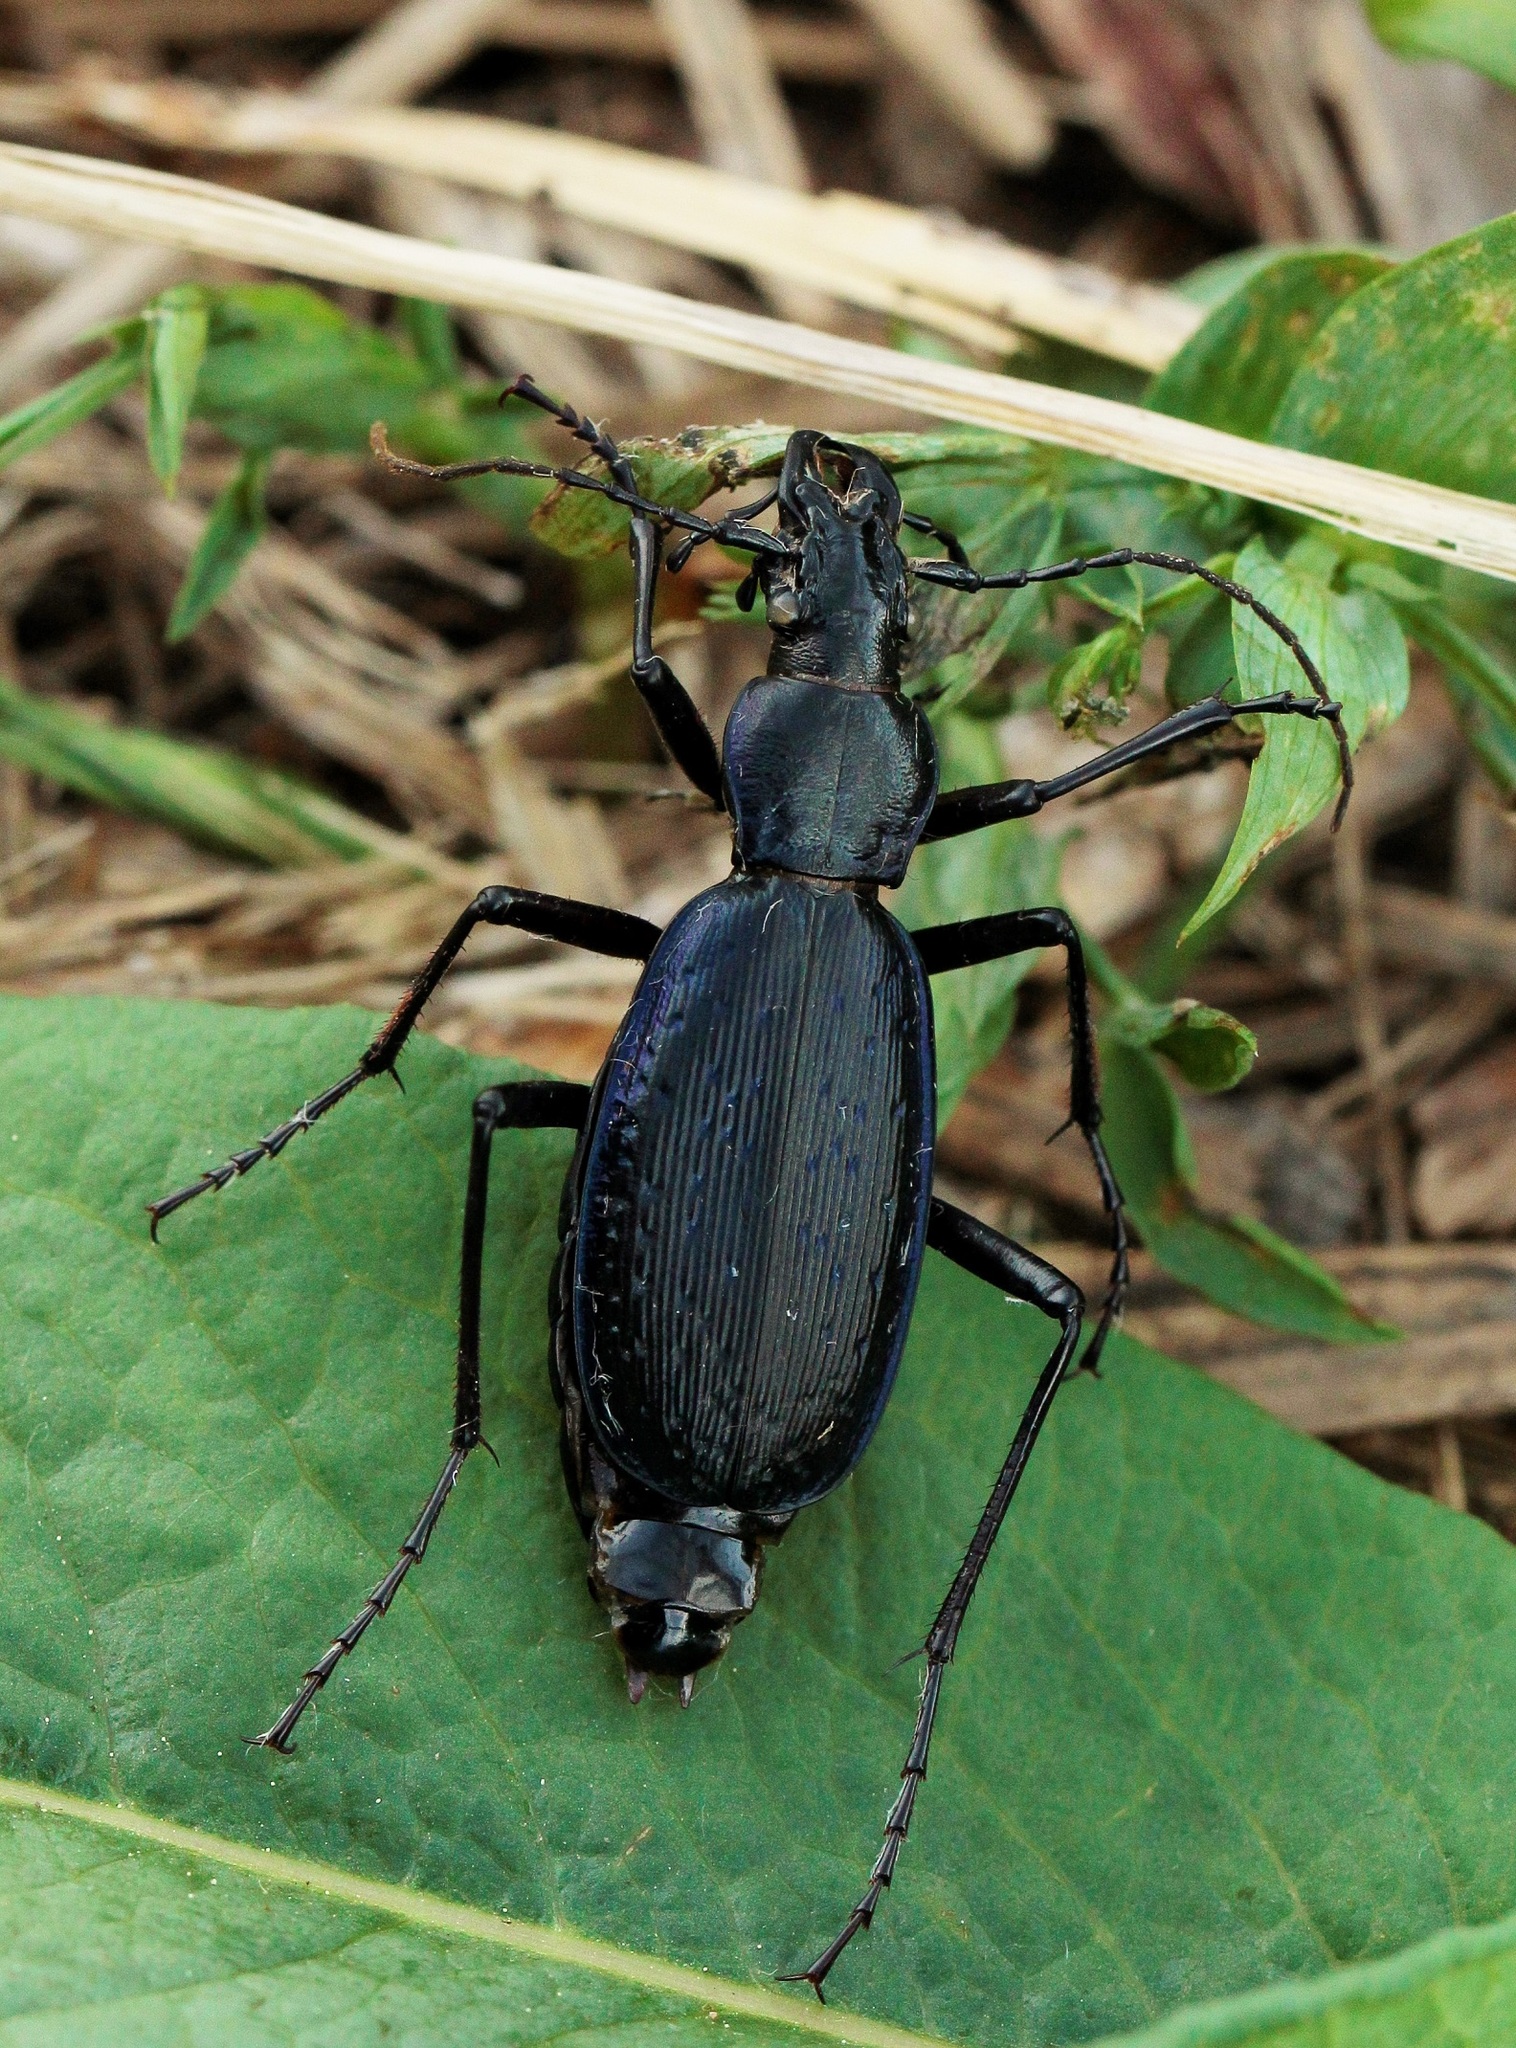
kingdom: Animalia
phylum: Arthropoda
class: Insecta
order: Coleoptera
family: Carabidae
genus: Carabus
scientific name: Carabus circassicus
